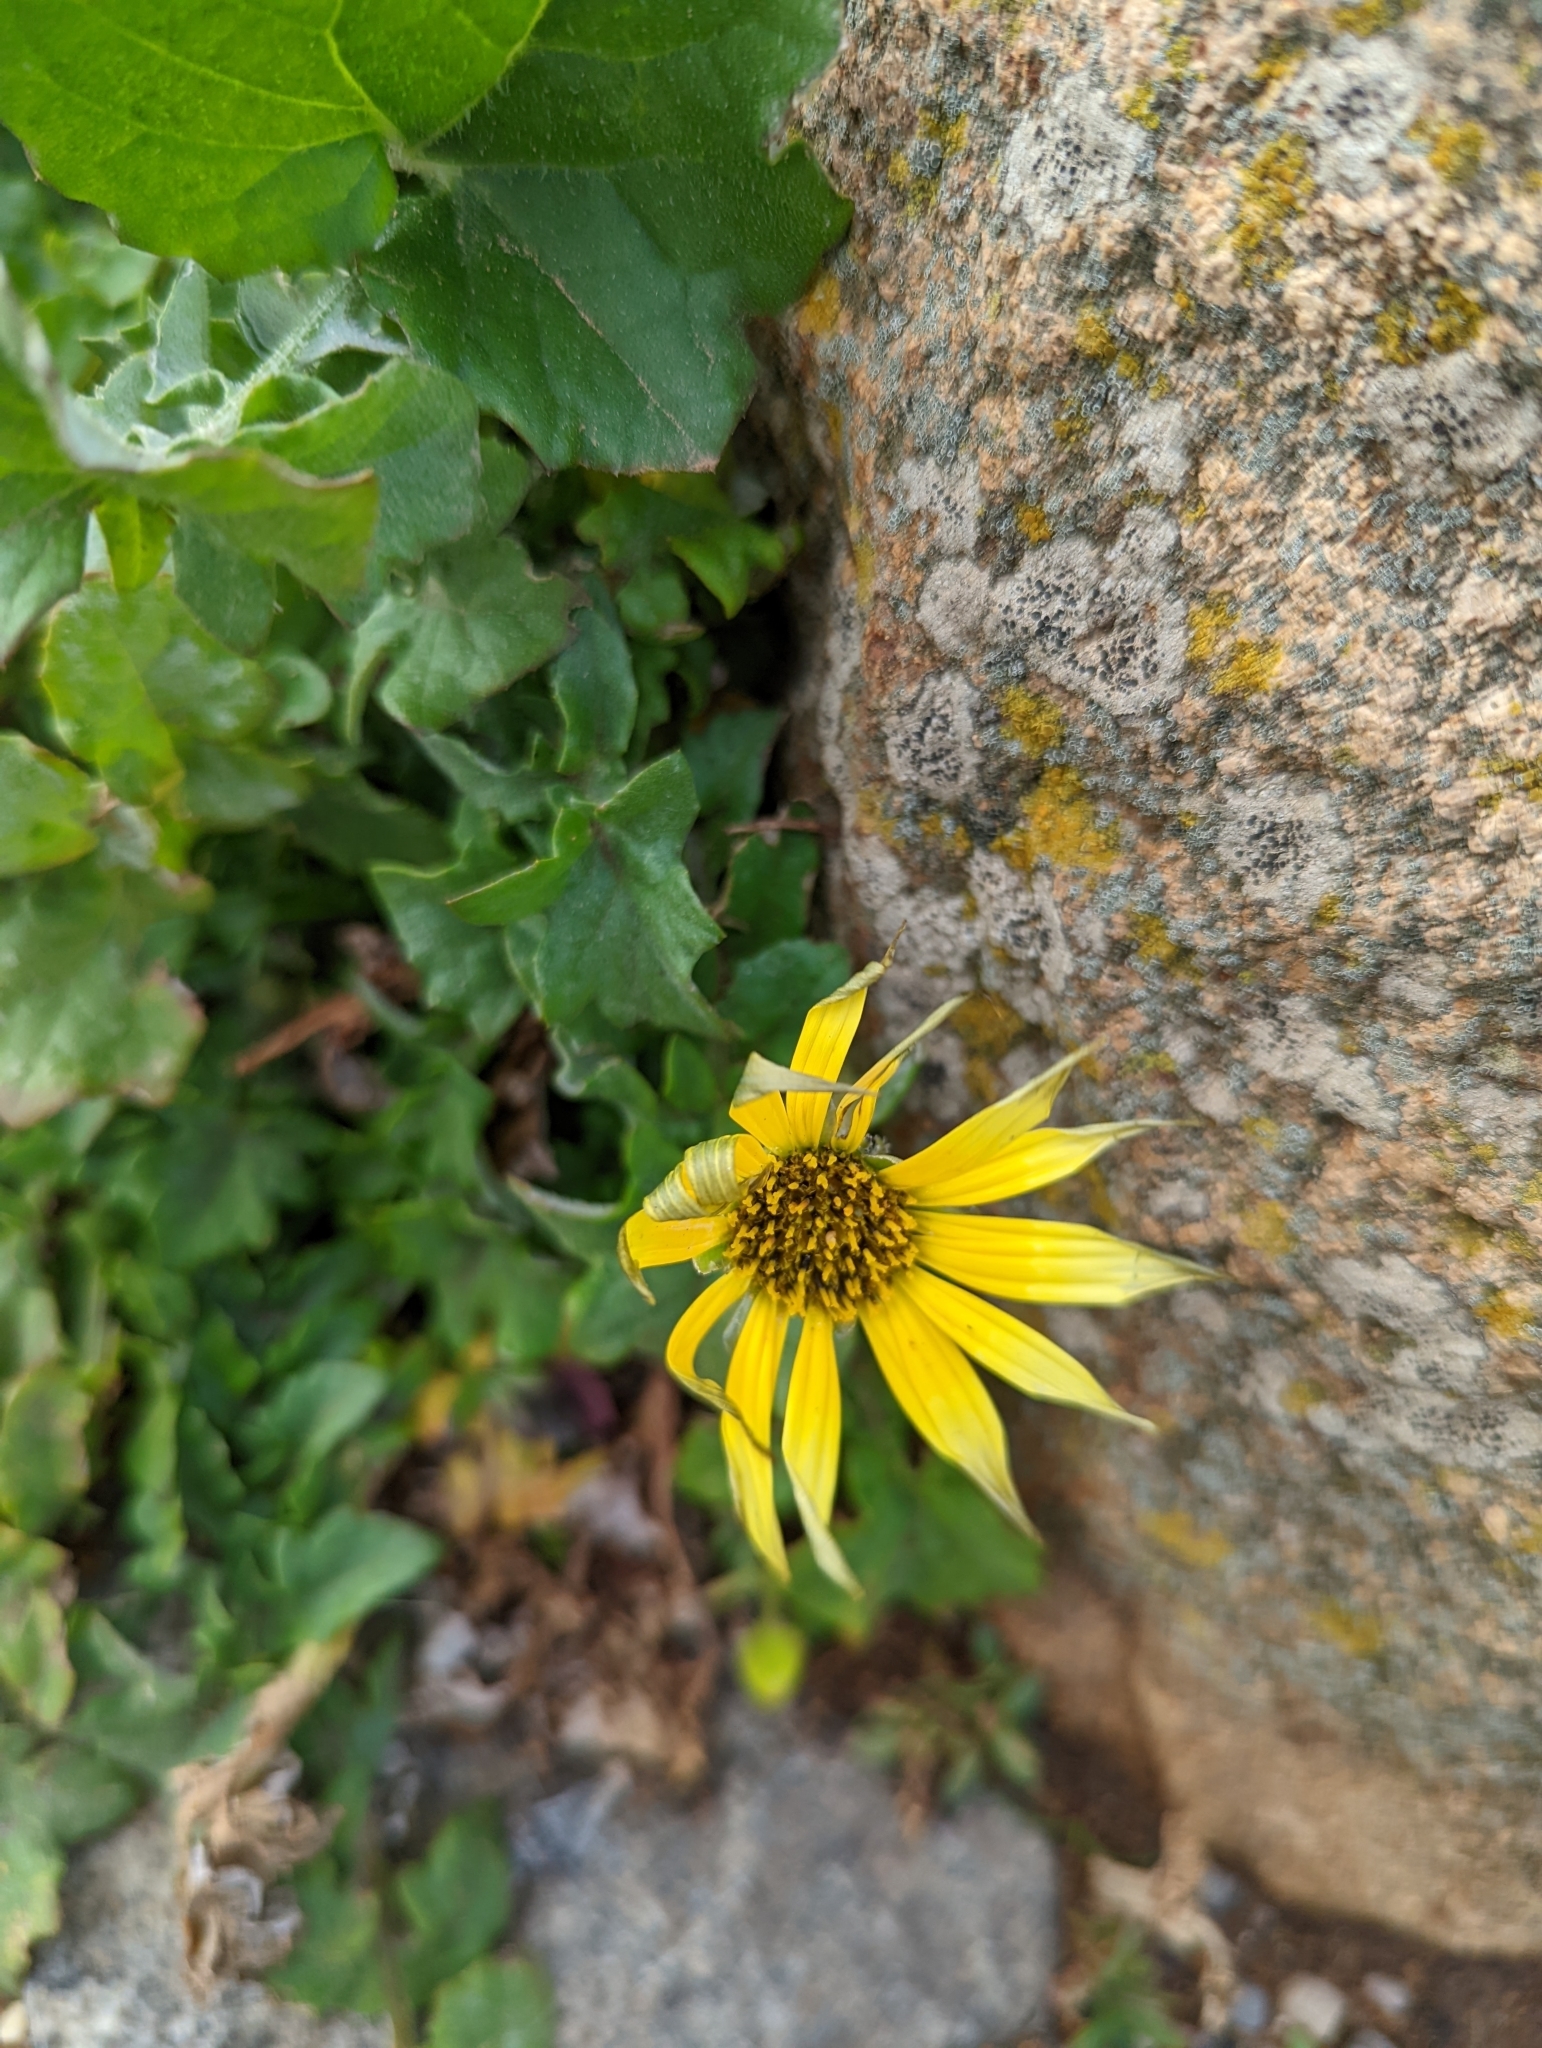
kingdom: Plantae
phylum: Tracheophyta
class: Magnoliopsida
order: Asterales
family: Asteraceae
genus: Arctotheca
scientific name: Arctotheca calendula
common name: Capeweed
